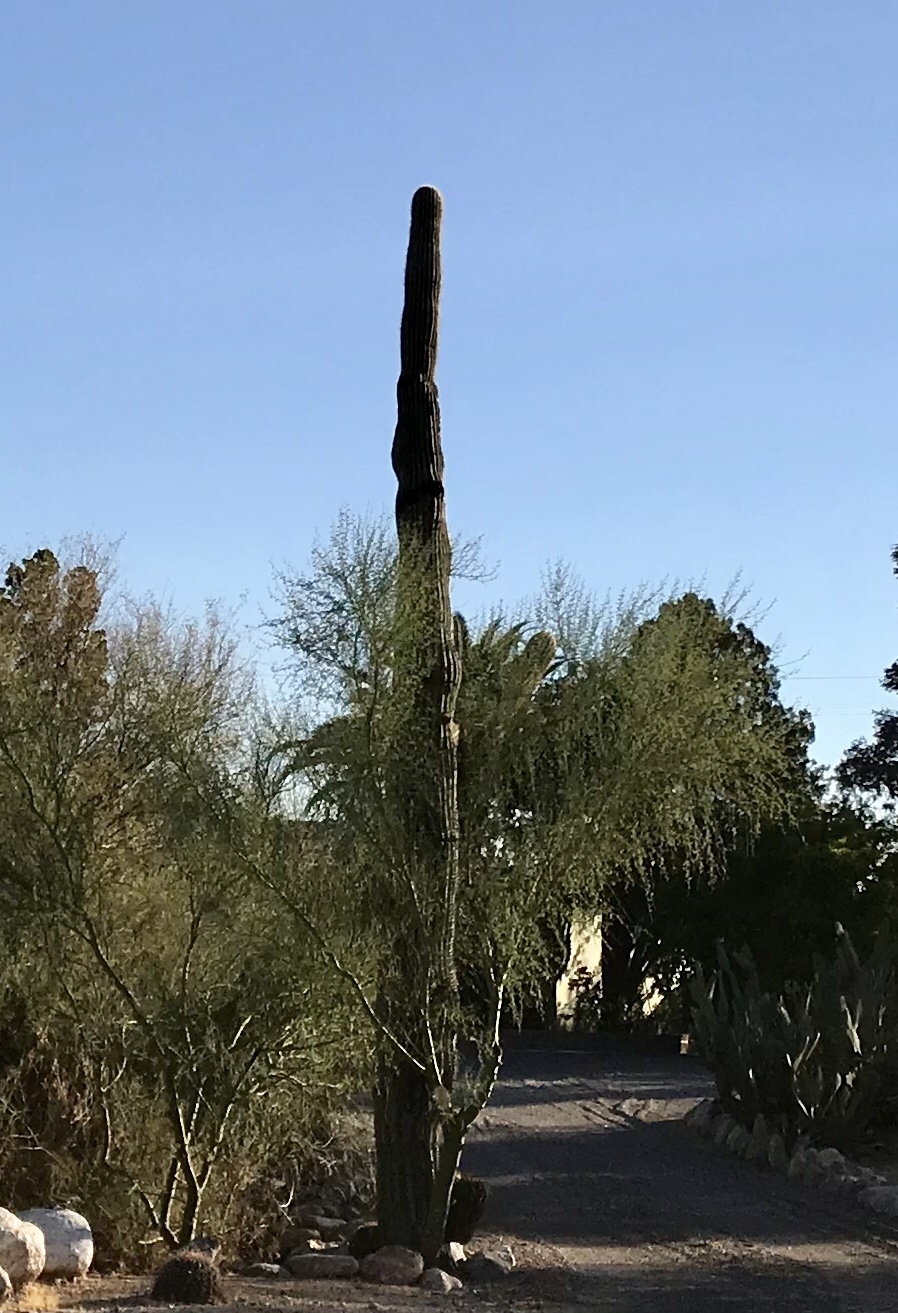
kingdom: Plantae
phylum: Tracheophyta
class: Magnoliopsida
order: Caryophyllales
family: Cactaceae
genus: Carnegiea
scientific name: Carnegiea gigantea
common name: Saguaro
